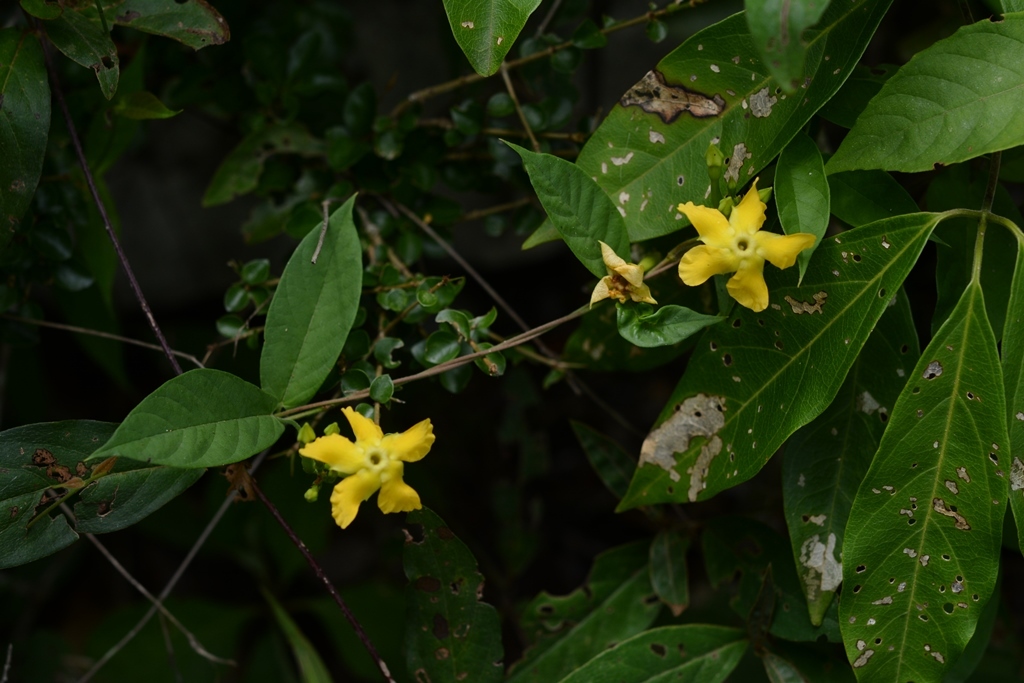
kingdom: Plantae
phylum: Tracheophyta
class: Magnoliopsida
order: Gentianales
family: Apocynaceae
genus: Mandevilla
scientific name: Mandevilla subsagittata
